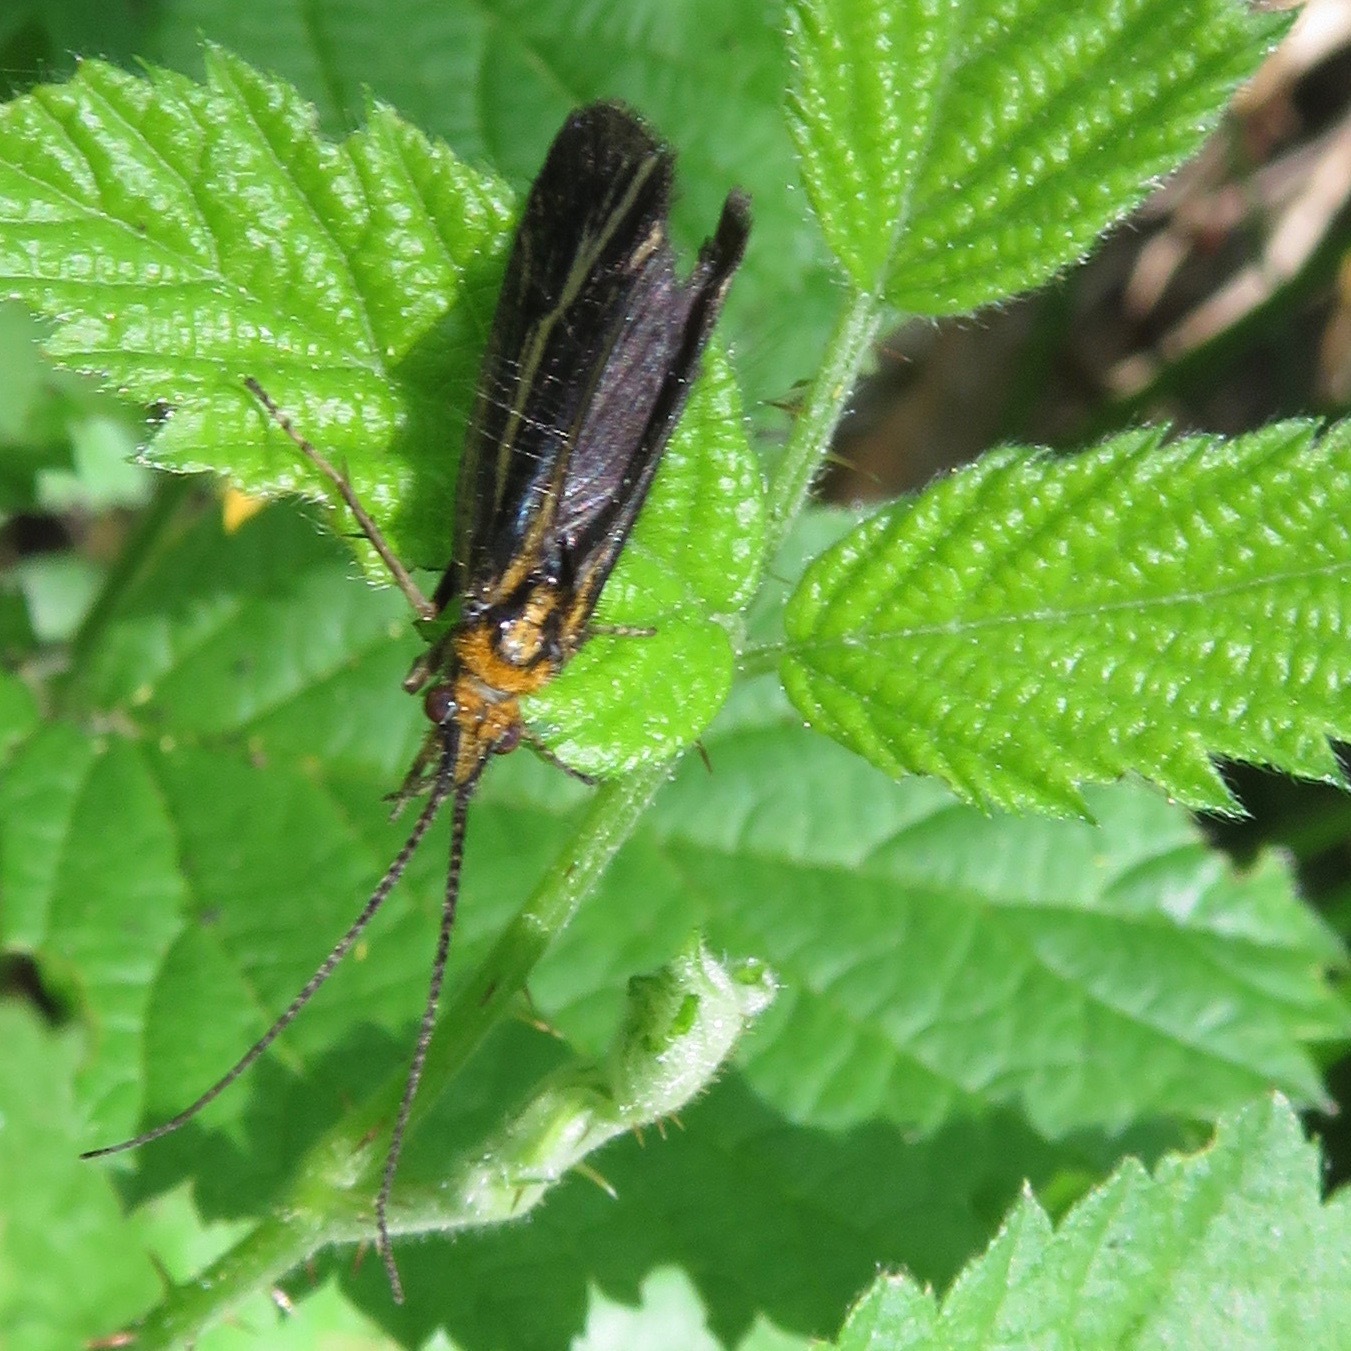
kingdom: Plantae
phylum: Tracheophyta
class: Magnoliopsida
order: Rosales
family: Rosaceae
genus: Rubus
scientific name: Rubus armeniacus
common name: Himalayan blackberry
